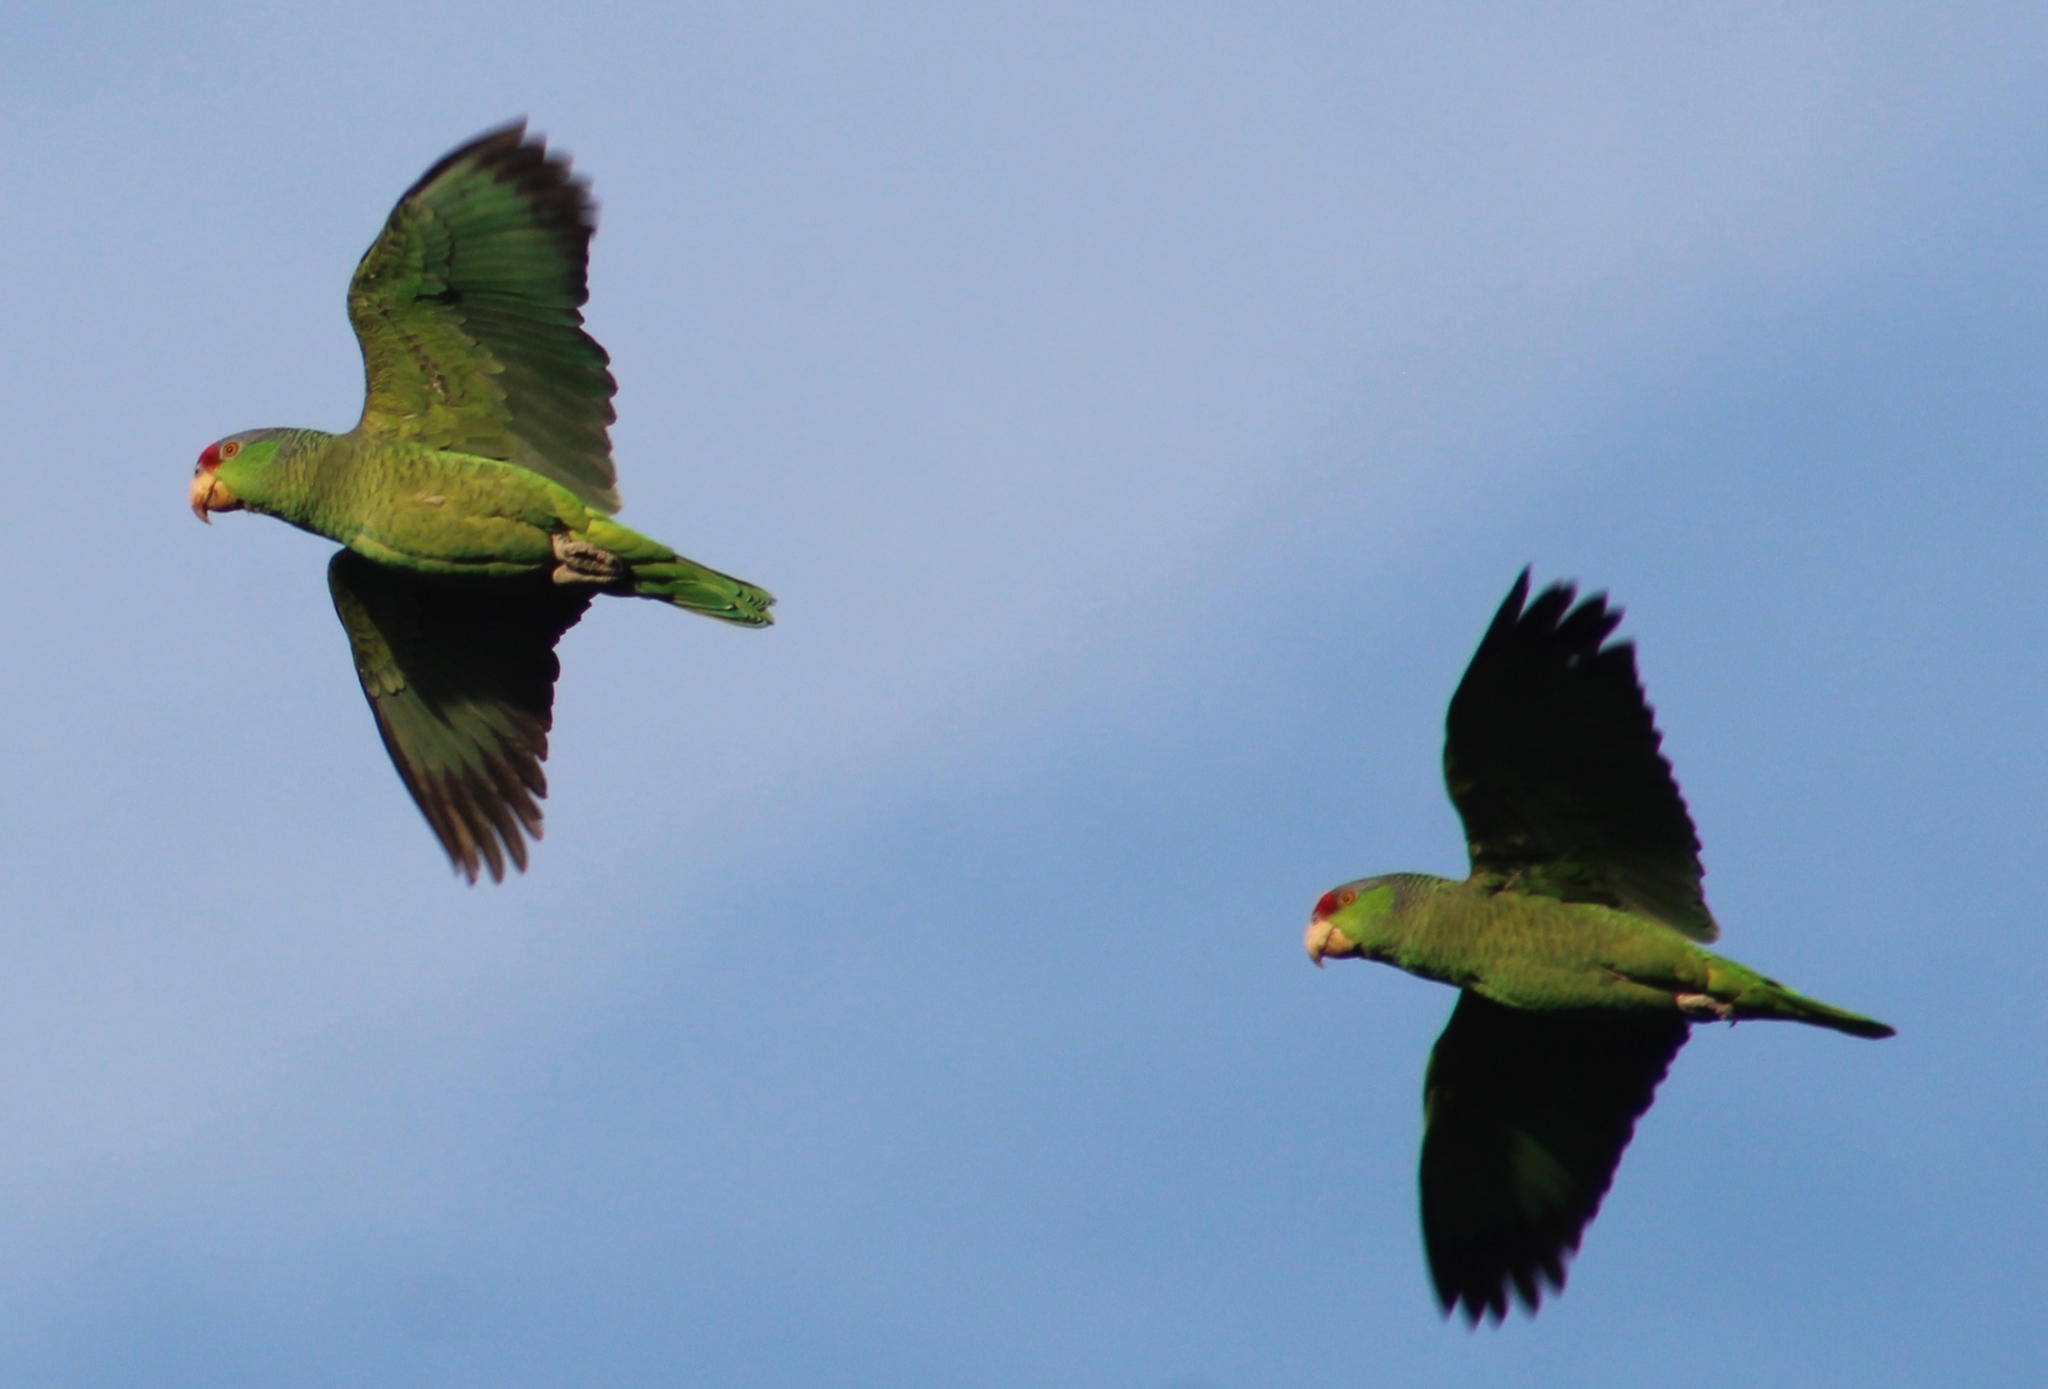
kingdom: Animalia
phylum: Chordata
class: Aves
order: Psittaciformes
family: Psittacidae
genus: Amazona
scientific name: Amazona viridigenalis
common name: Red-crowned amazon
